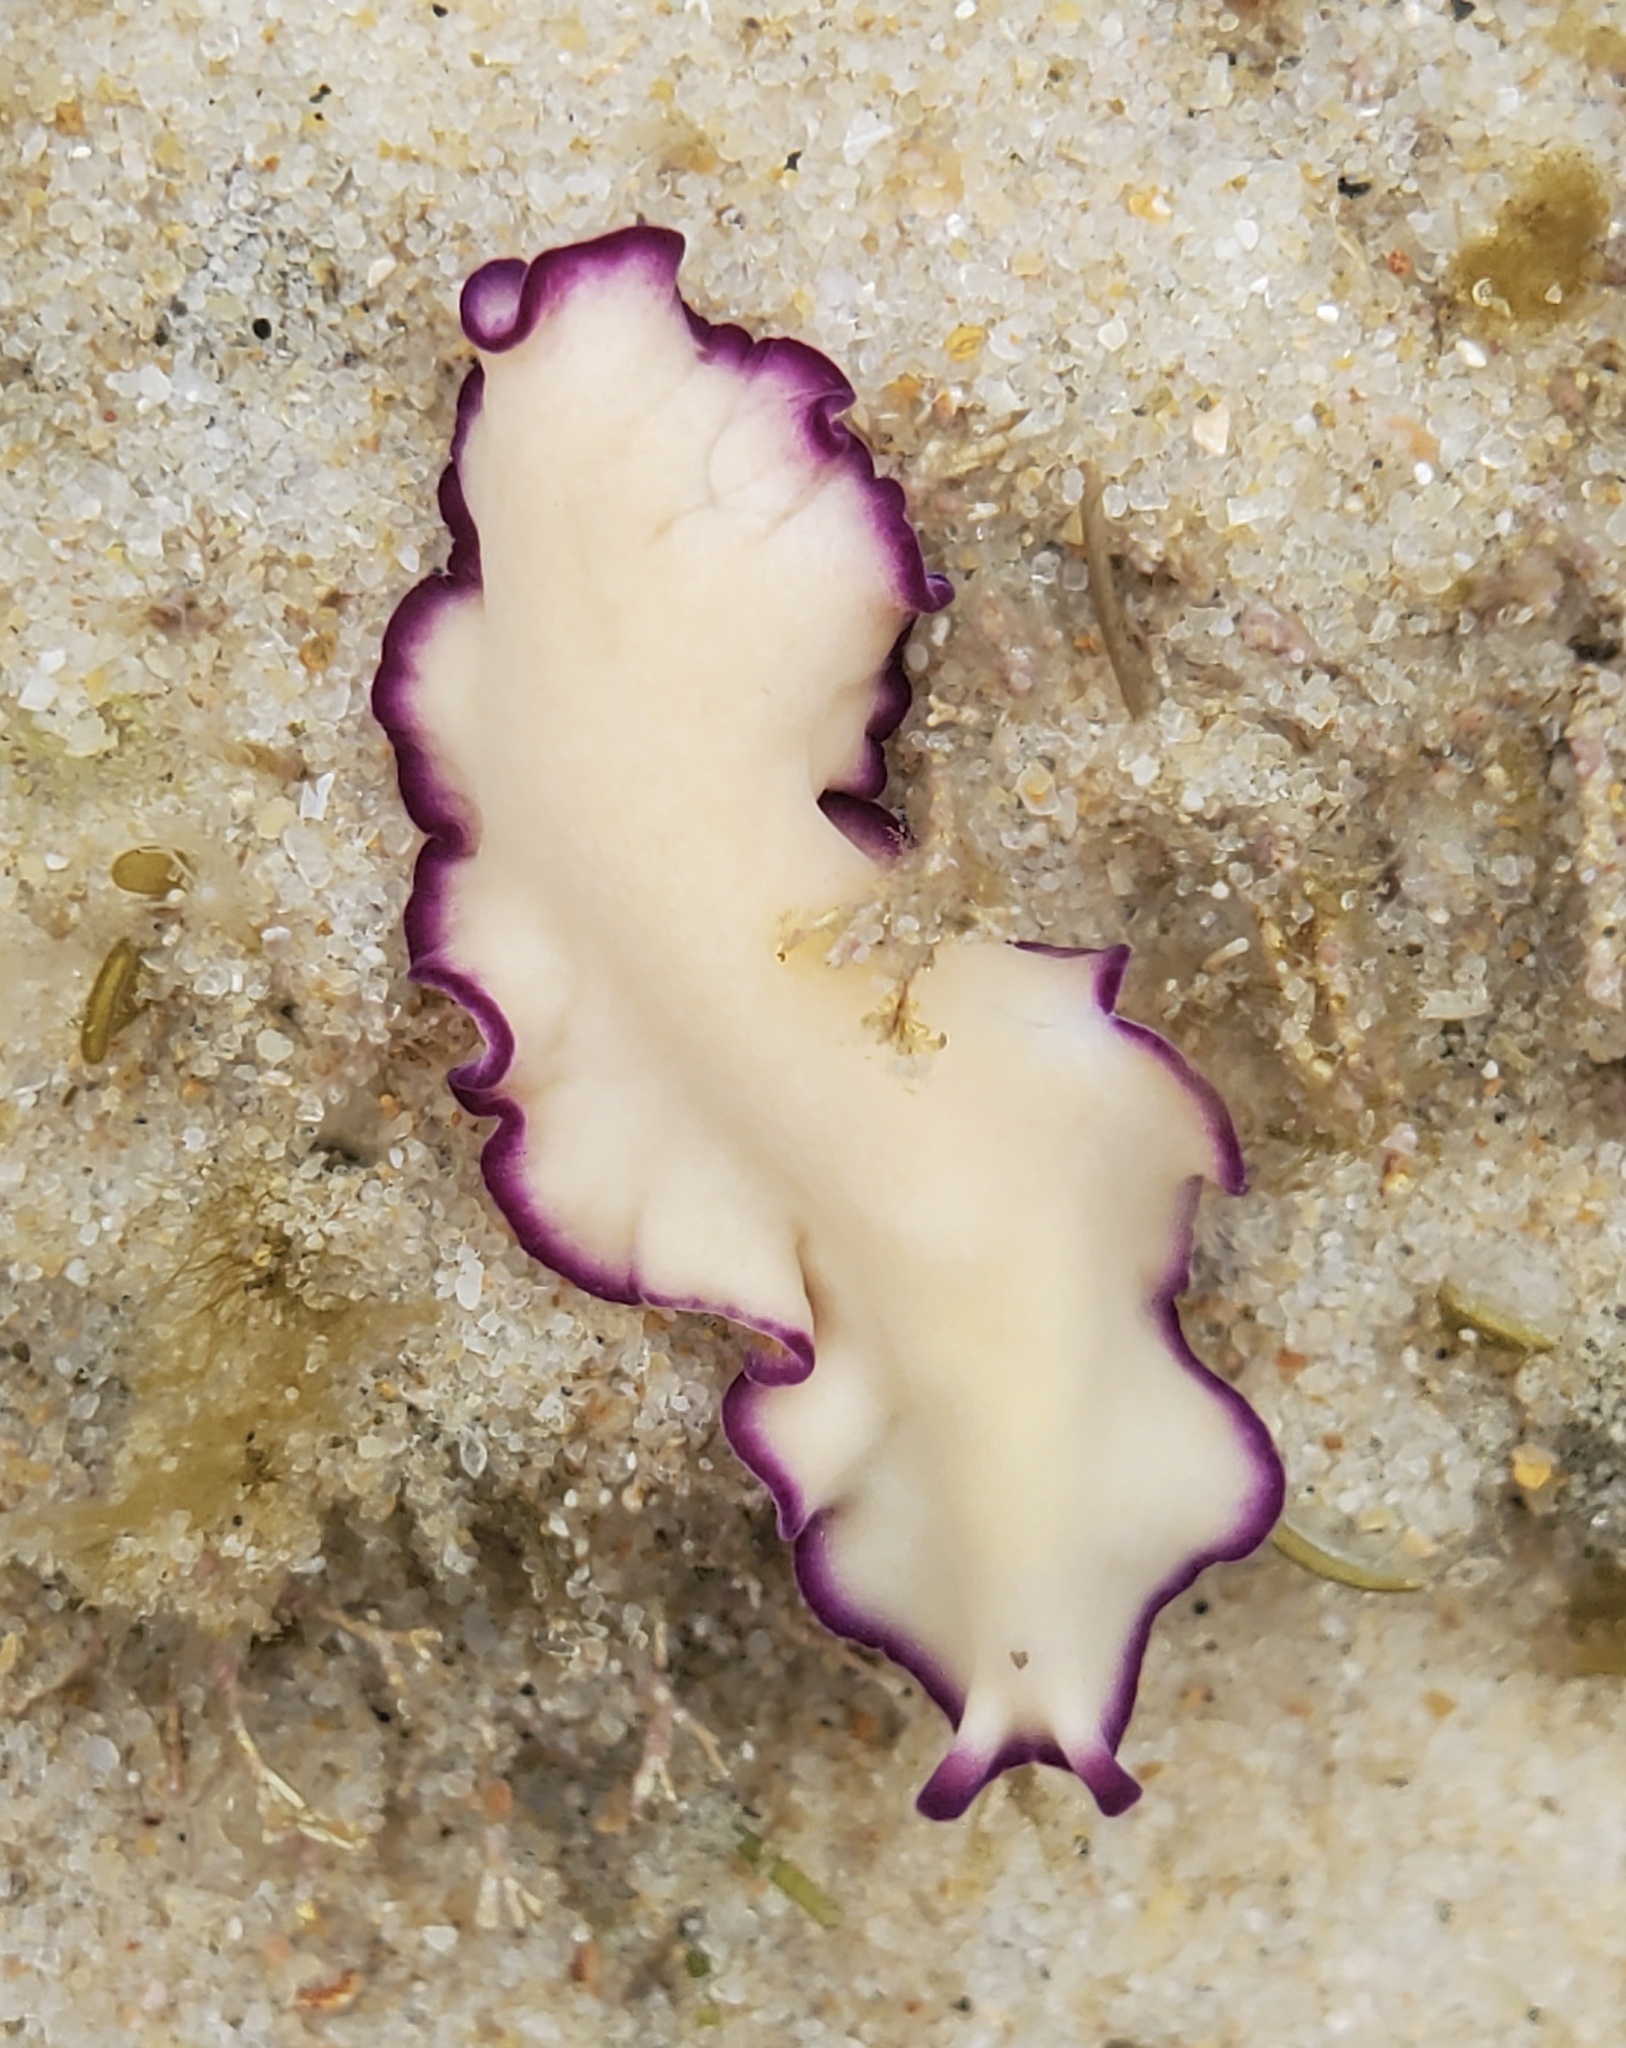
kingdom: Animalia
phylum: Platyhelminthes
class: Turbellaria
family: Pseudocerotidae
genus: Pseudoceros
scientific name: Pseudoceros gamblei
